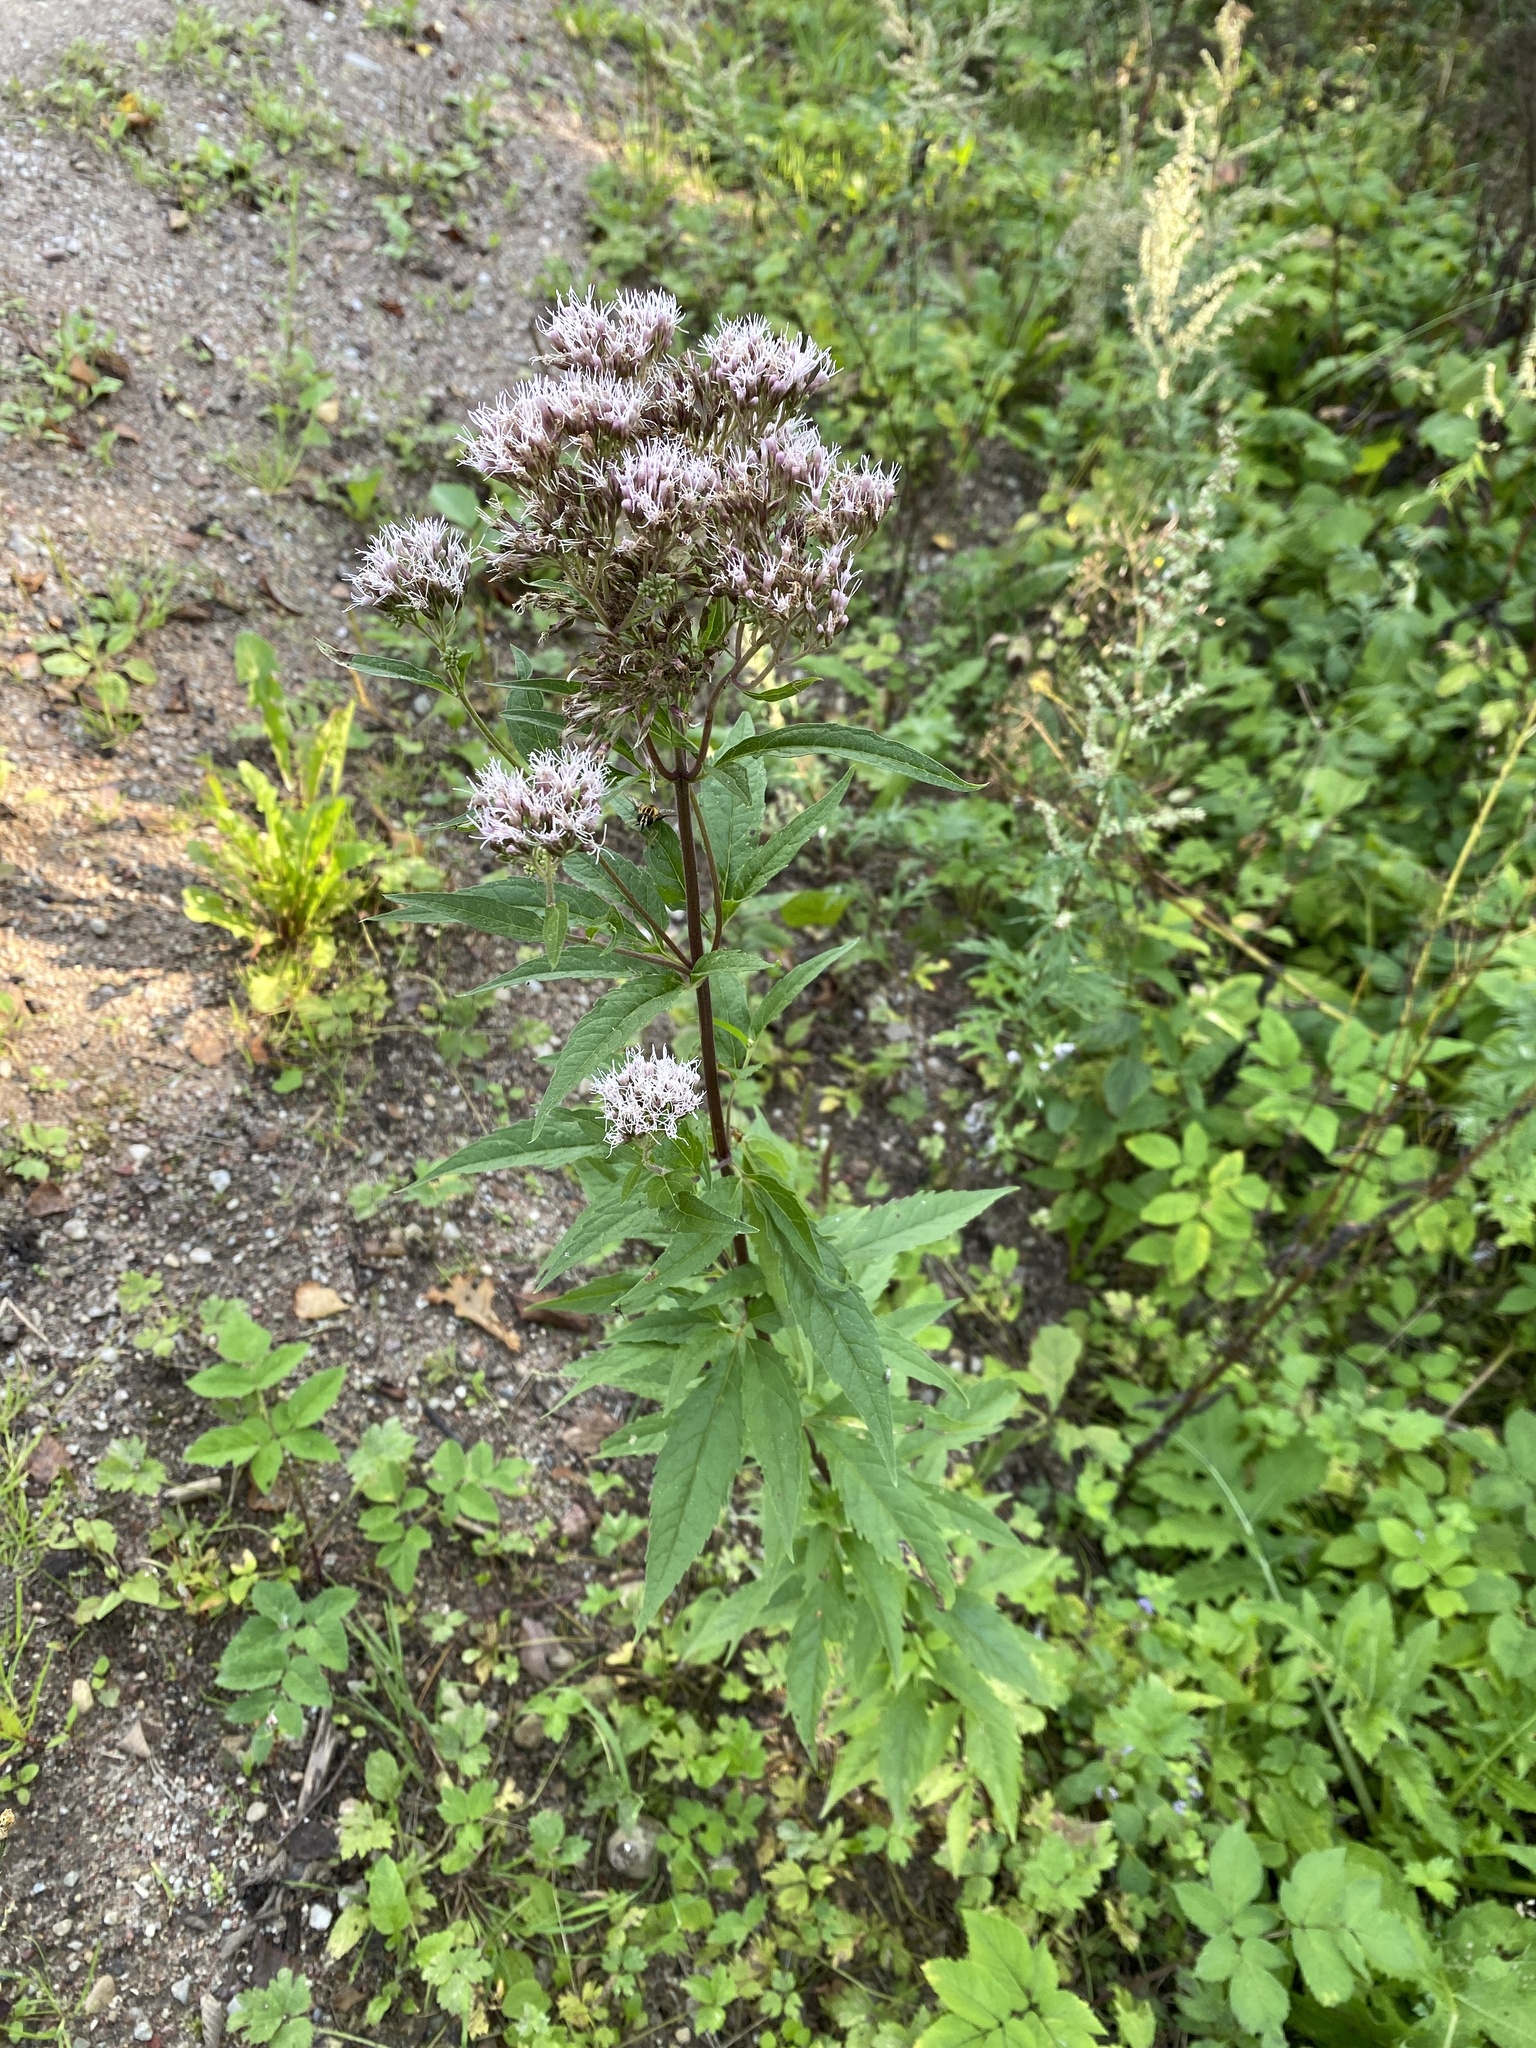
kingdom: Plantae
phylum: Tracheophyta
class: Magnoliopsida
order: Asterales
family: Asteraceae
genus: Eupatorium
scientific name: Eupatorium cannabinum
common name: Hemp-agrimony
